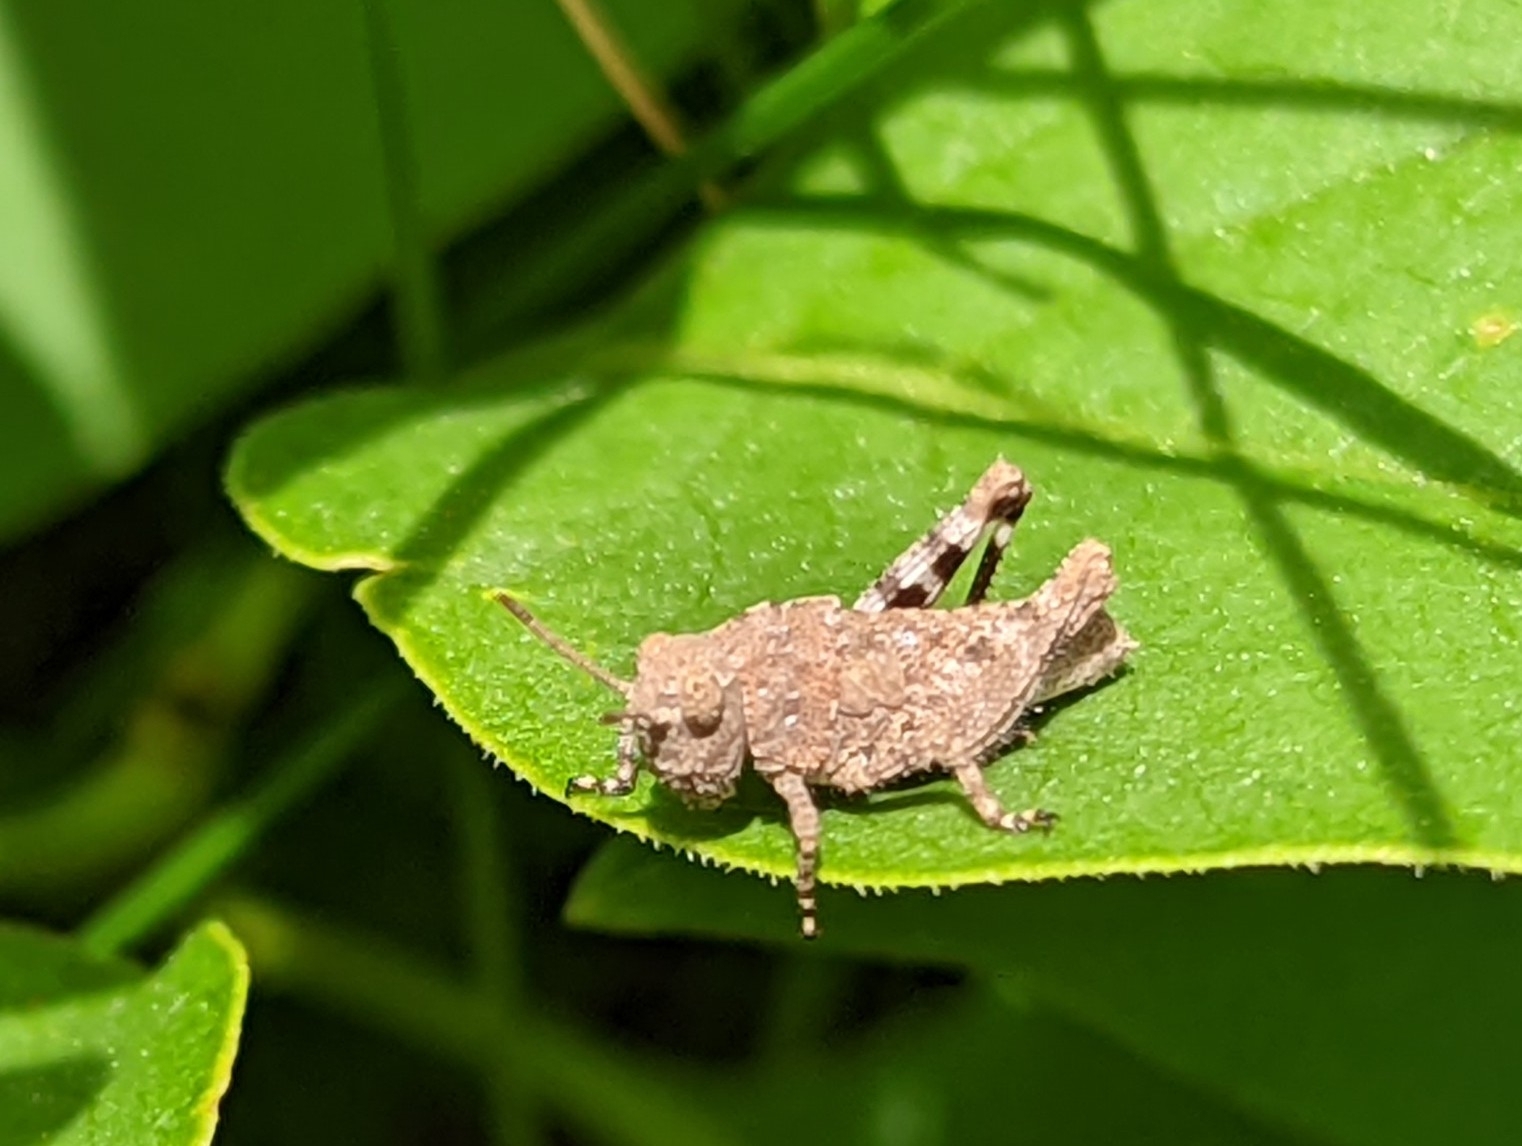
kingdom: Animalia
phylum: Arthropoda
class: Insecta
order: Orthoptera
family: Acrididae
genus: Dissosteira
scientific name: Dissosteira carolina
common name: Carolina grasshopper
